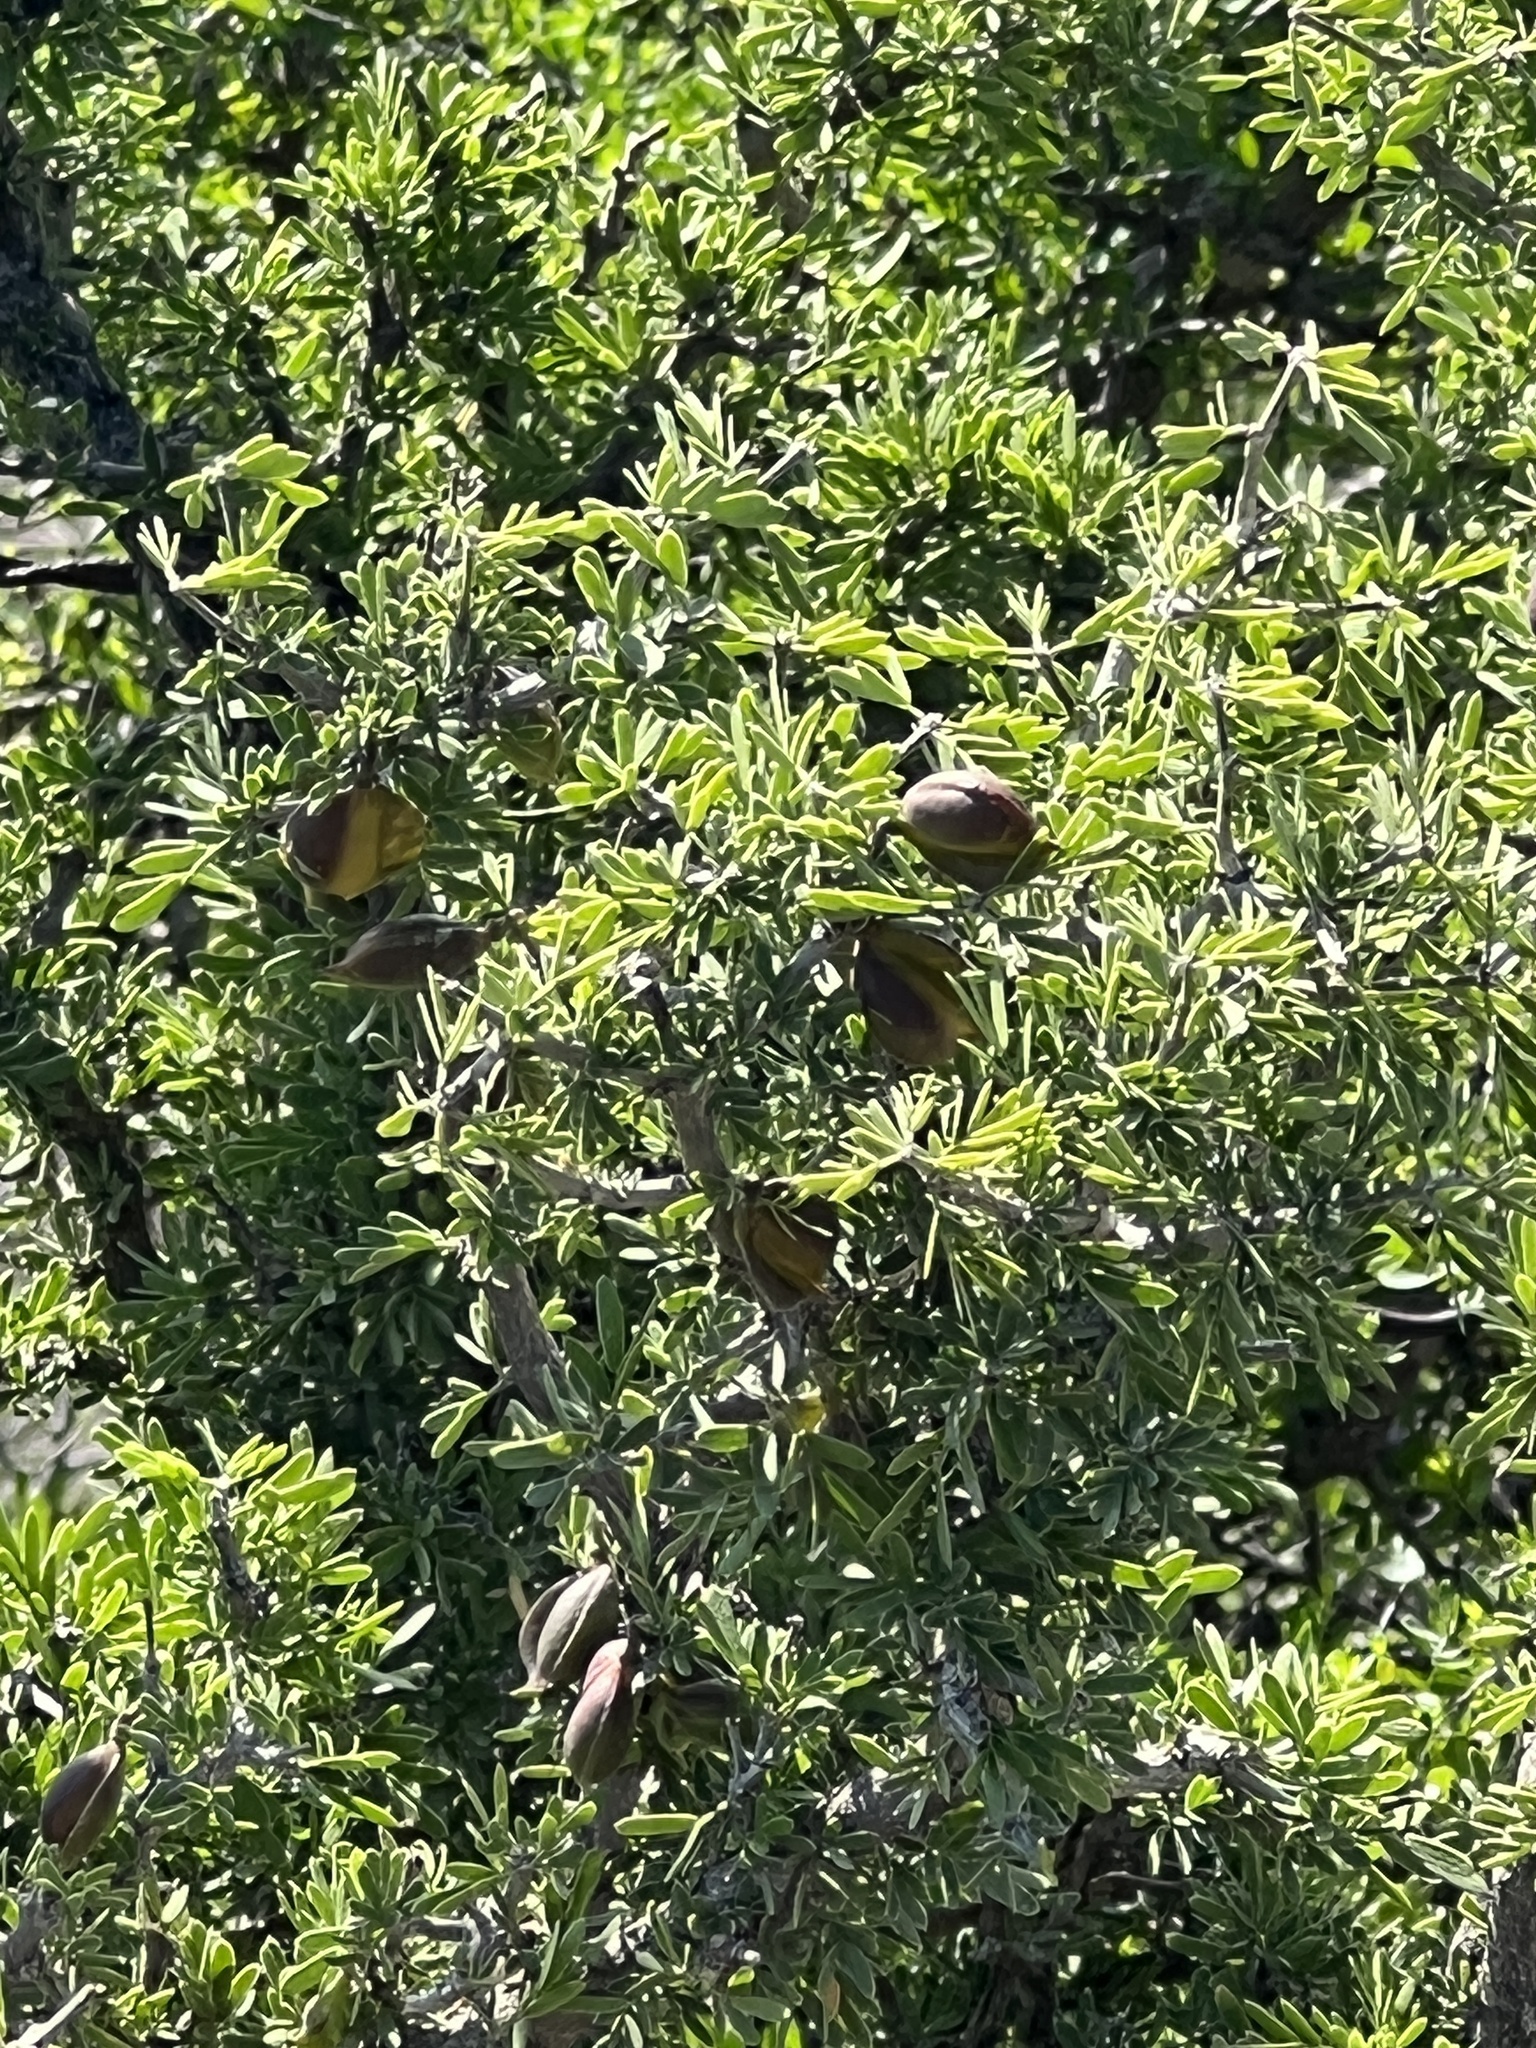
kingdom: Plantae
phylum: Tracheophyta
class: Magnoliopsida
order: Zygophyllales
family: Zygophyllaceae
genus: Porlieria
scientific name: Porlieria angustifolia
